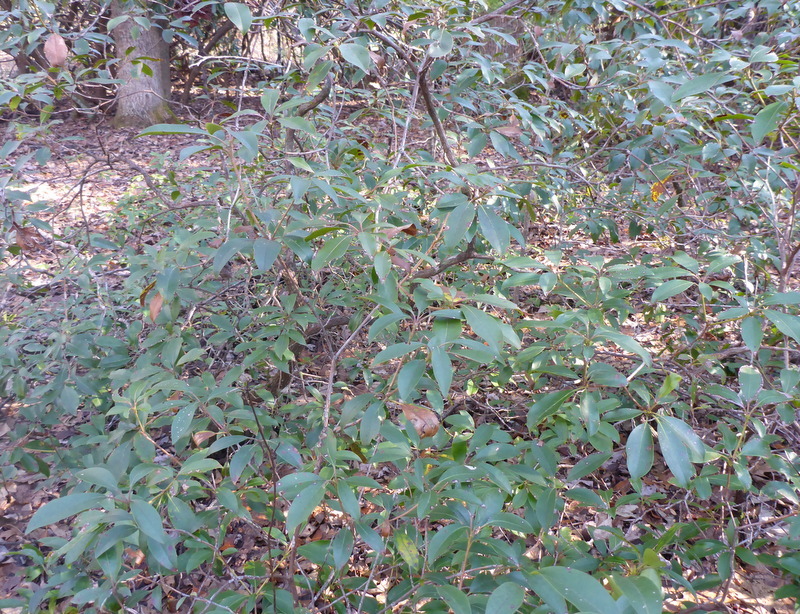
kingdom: Plantae
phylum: Tracheophyta
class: Magnoliopsida
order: Ericales
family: Ericaceae
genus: Kalmia
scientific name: Kalmia latifolia
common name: Mountain-laurel
